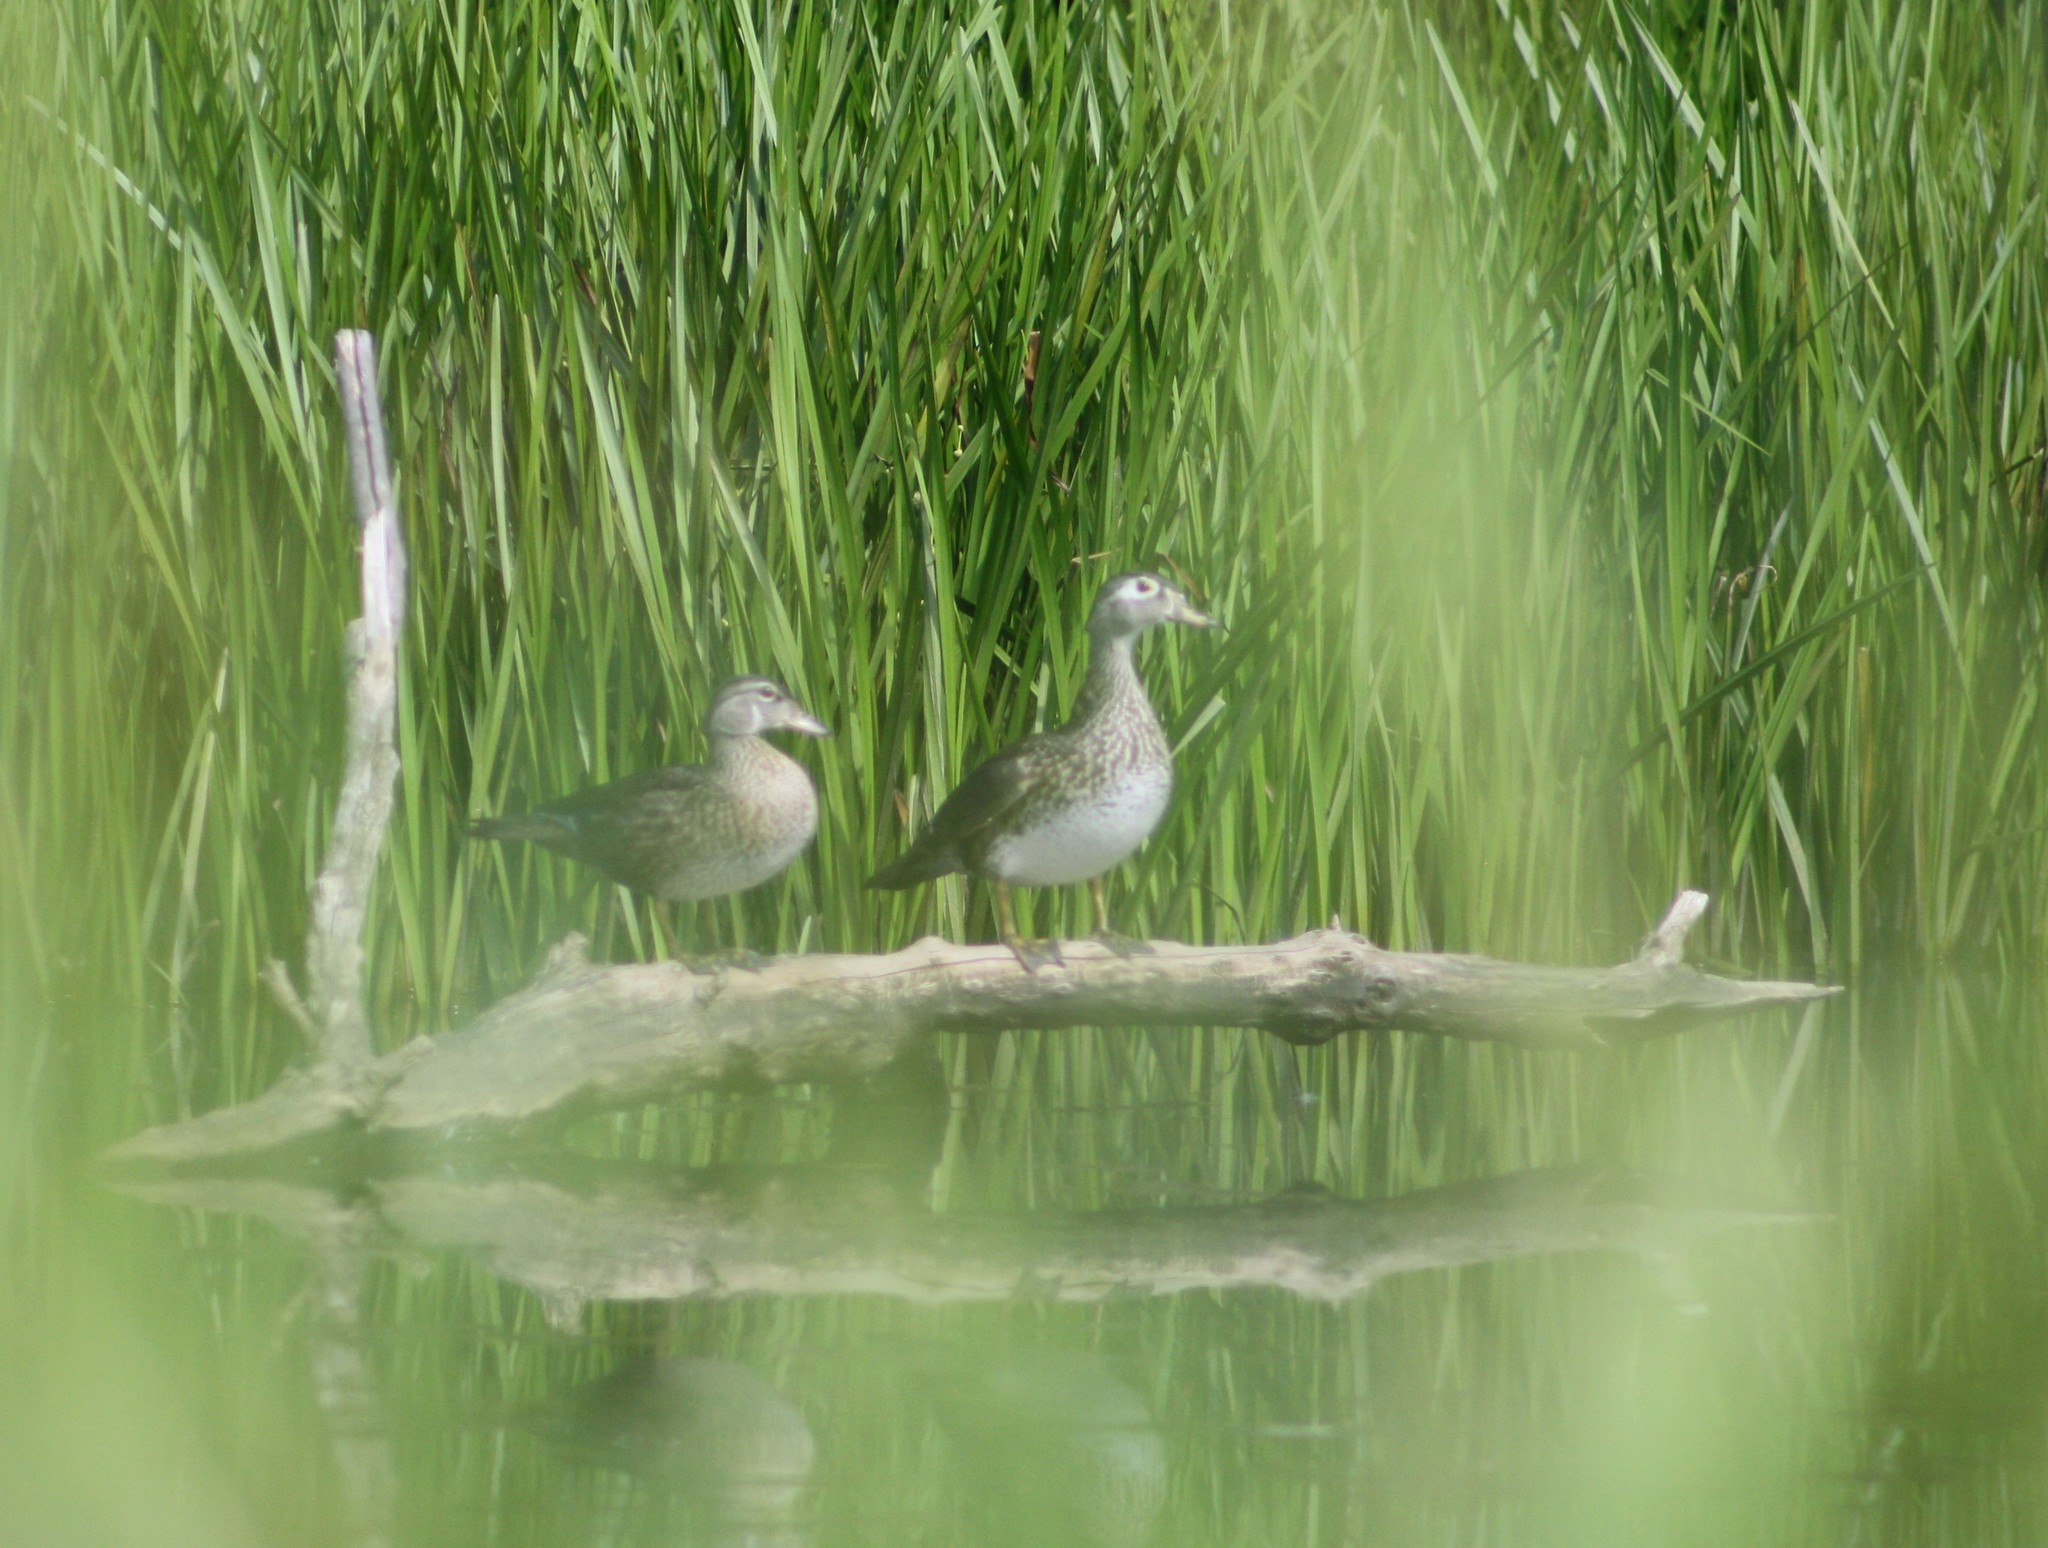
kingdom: Animalia
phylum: Chordata
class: Aves
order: Anseriformes
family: Anatidae
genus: Aix
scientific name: Aix sponsa
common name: Wood duck
